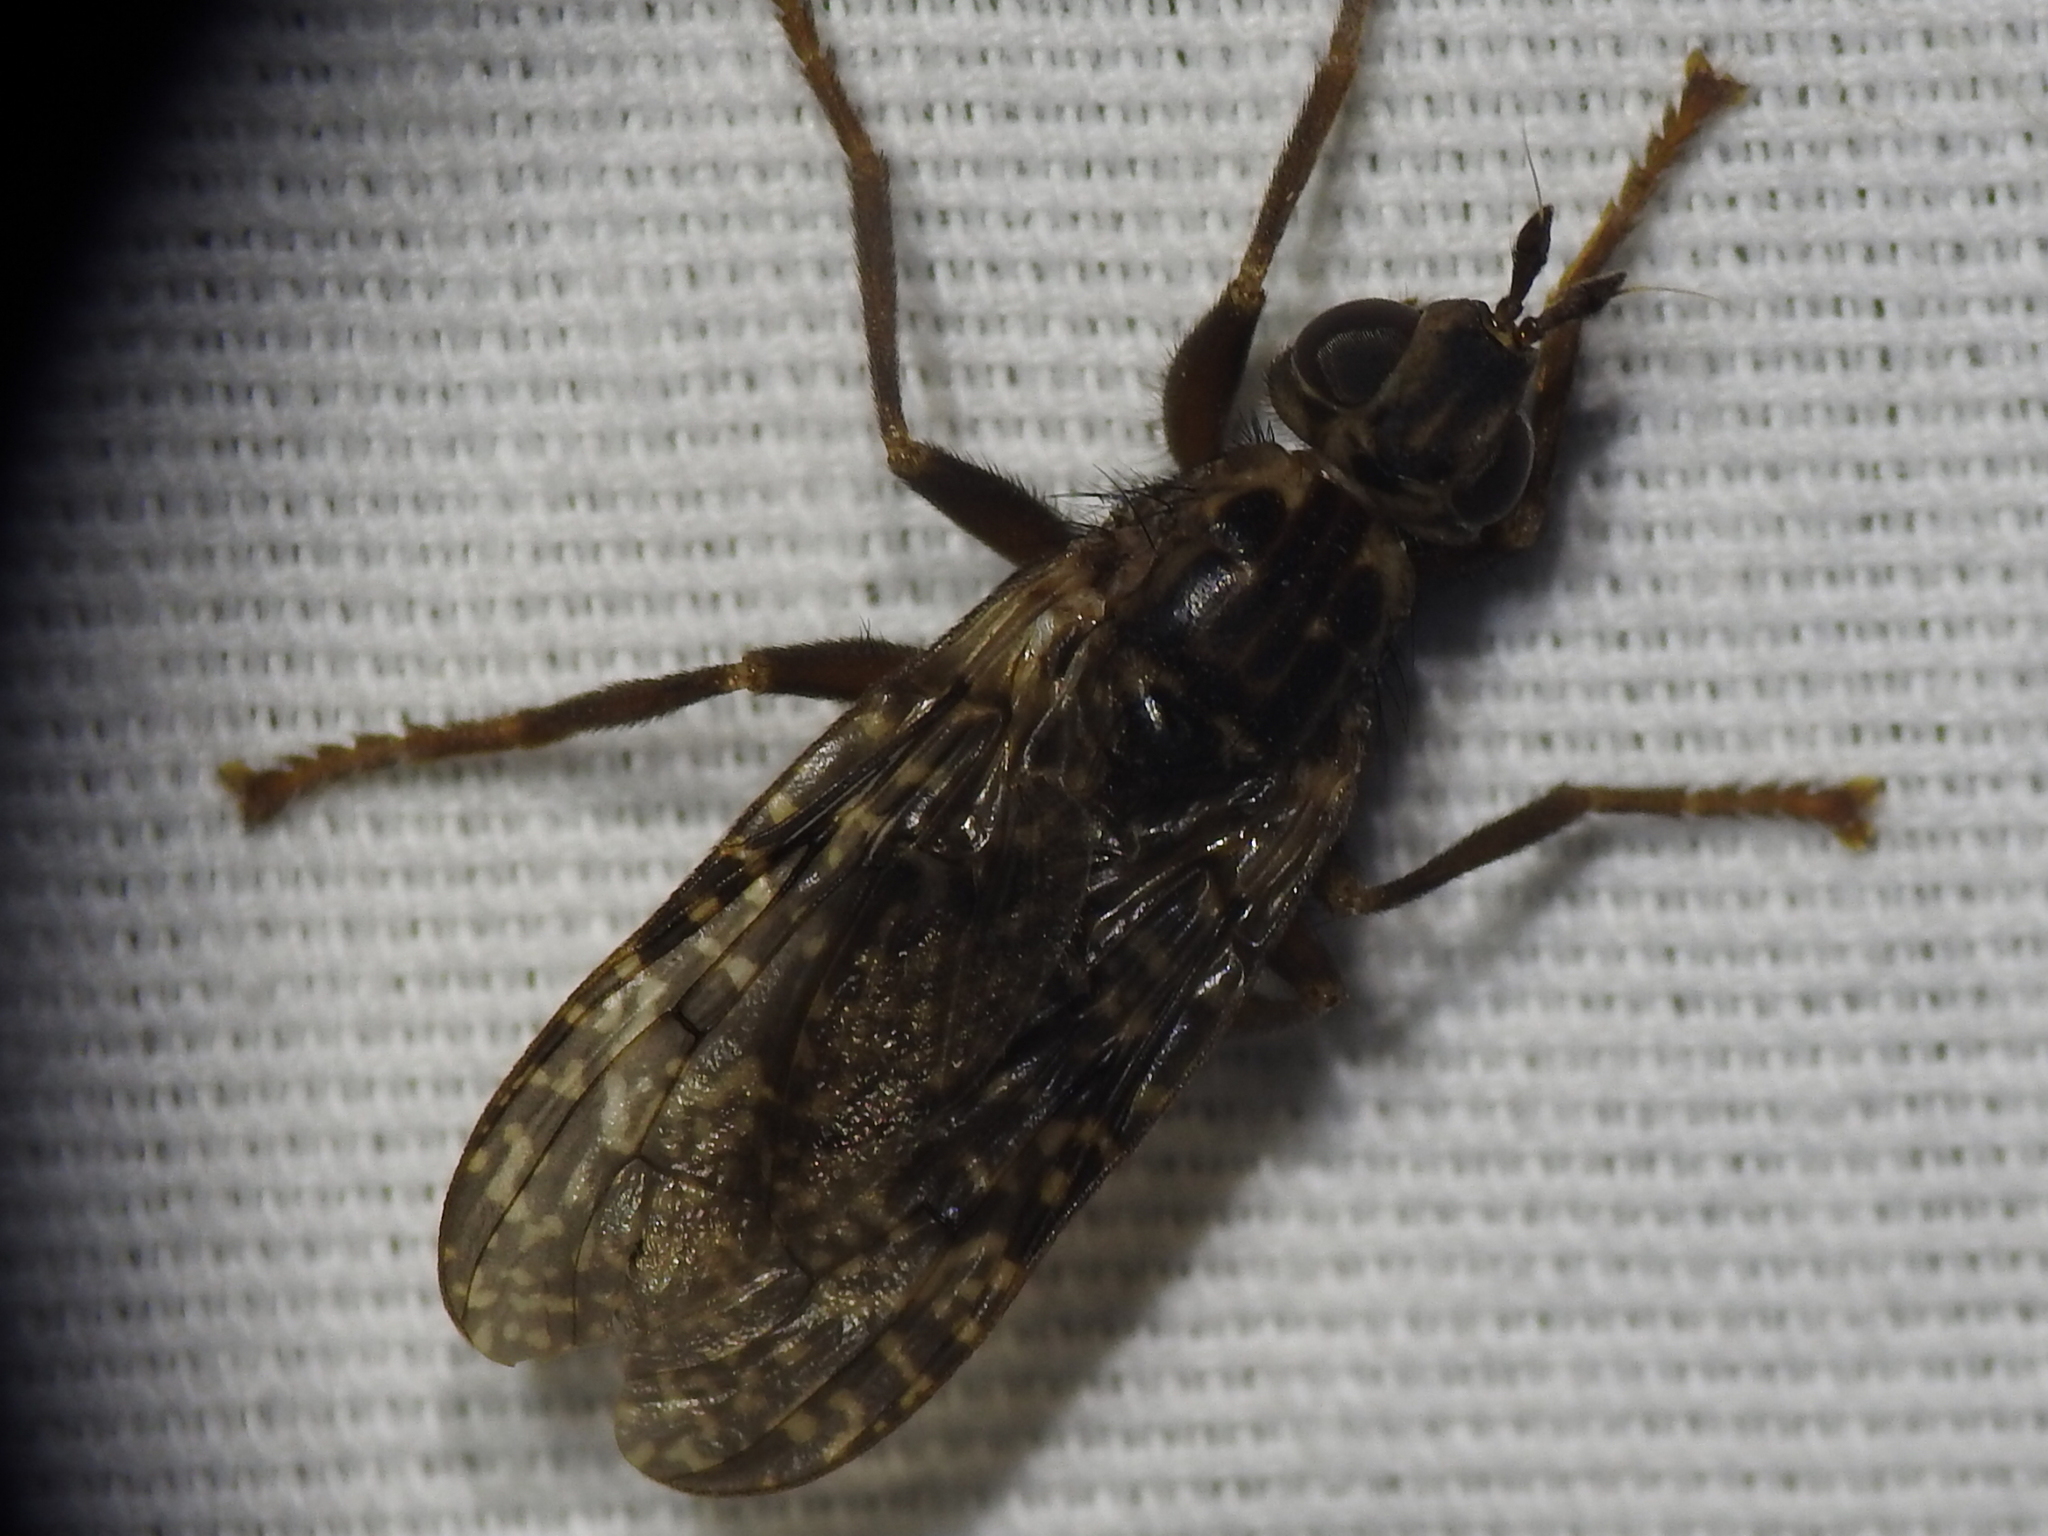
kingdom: Animalia
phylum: Arthropoda
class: Insecta
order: Diptera
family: Pyrgotidae
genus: Pyrgota
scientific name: Pyrgota valida
